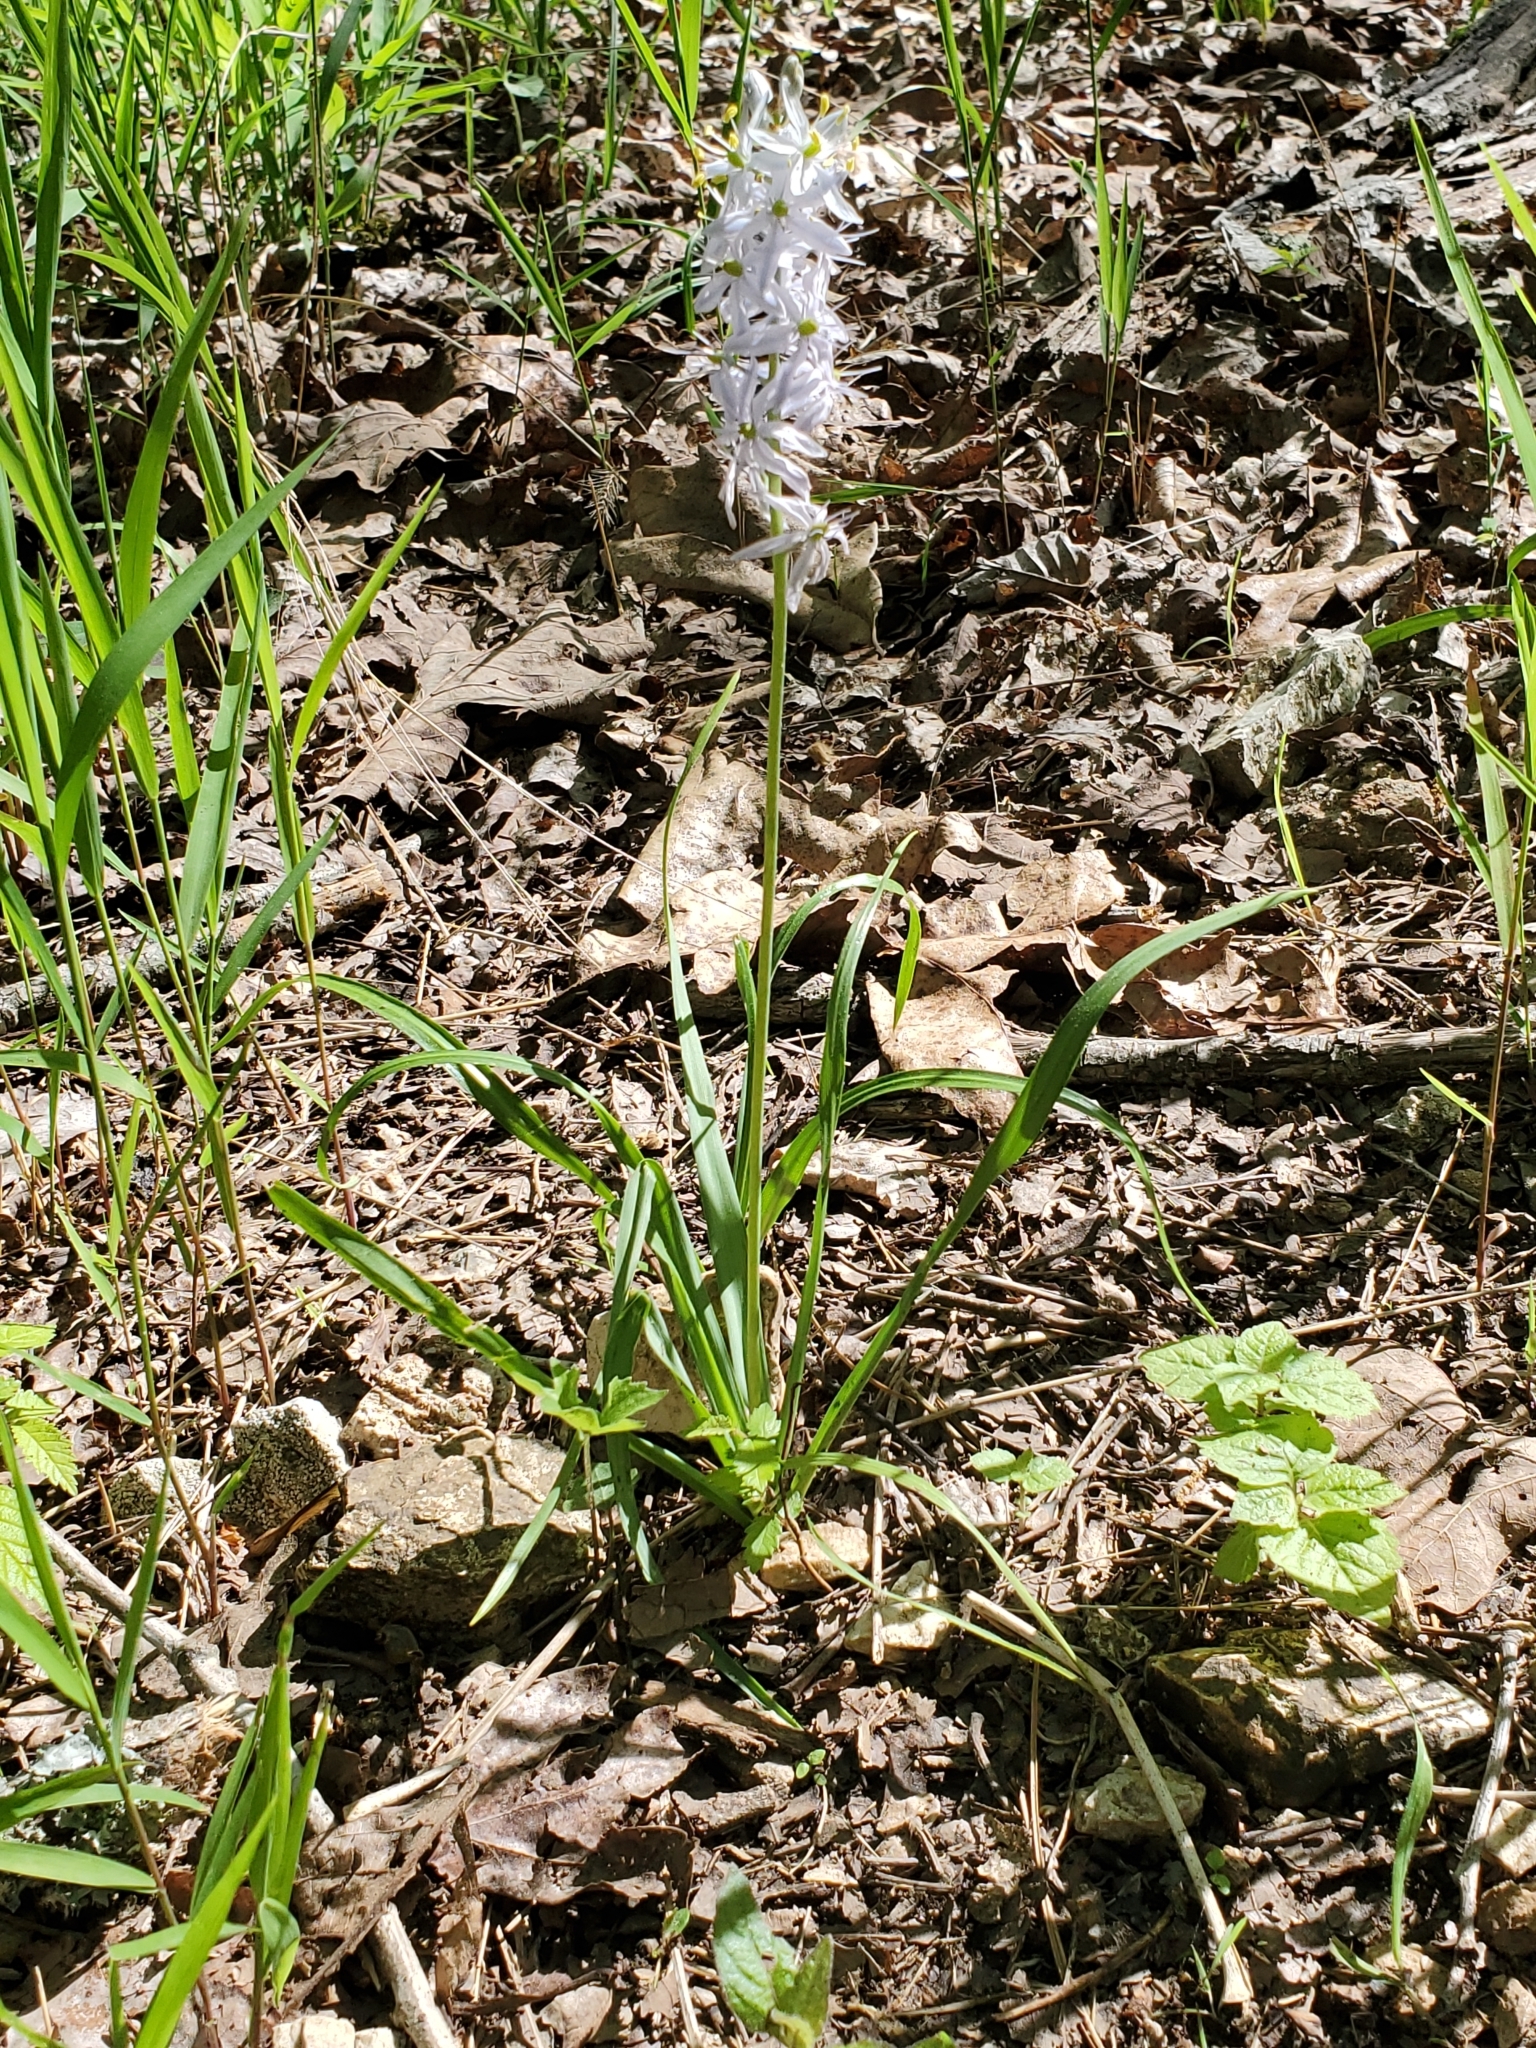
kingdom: Plantae
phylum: Tracheophyta
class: Liliopsida
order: Asparagales
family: Asparagaceae
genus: Camassia
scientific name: Camassia scilloides
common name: Wild hyacinth
